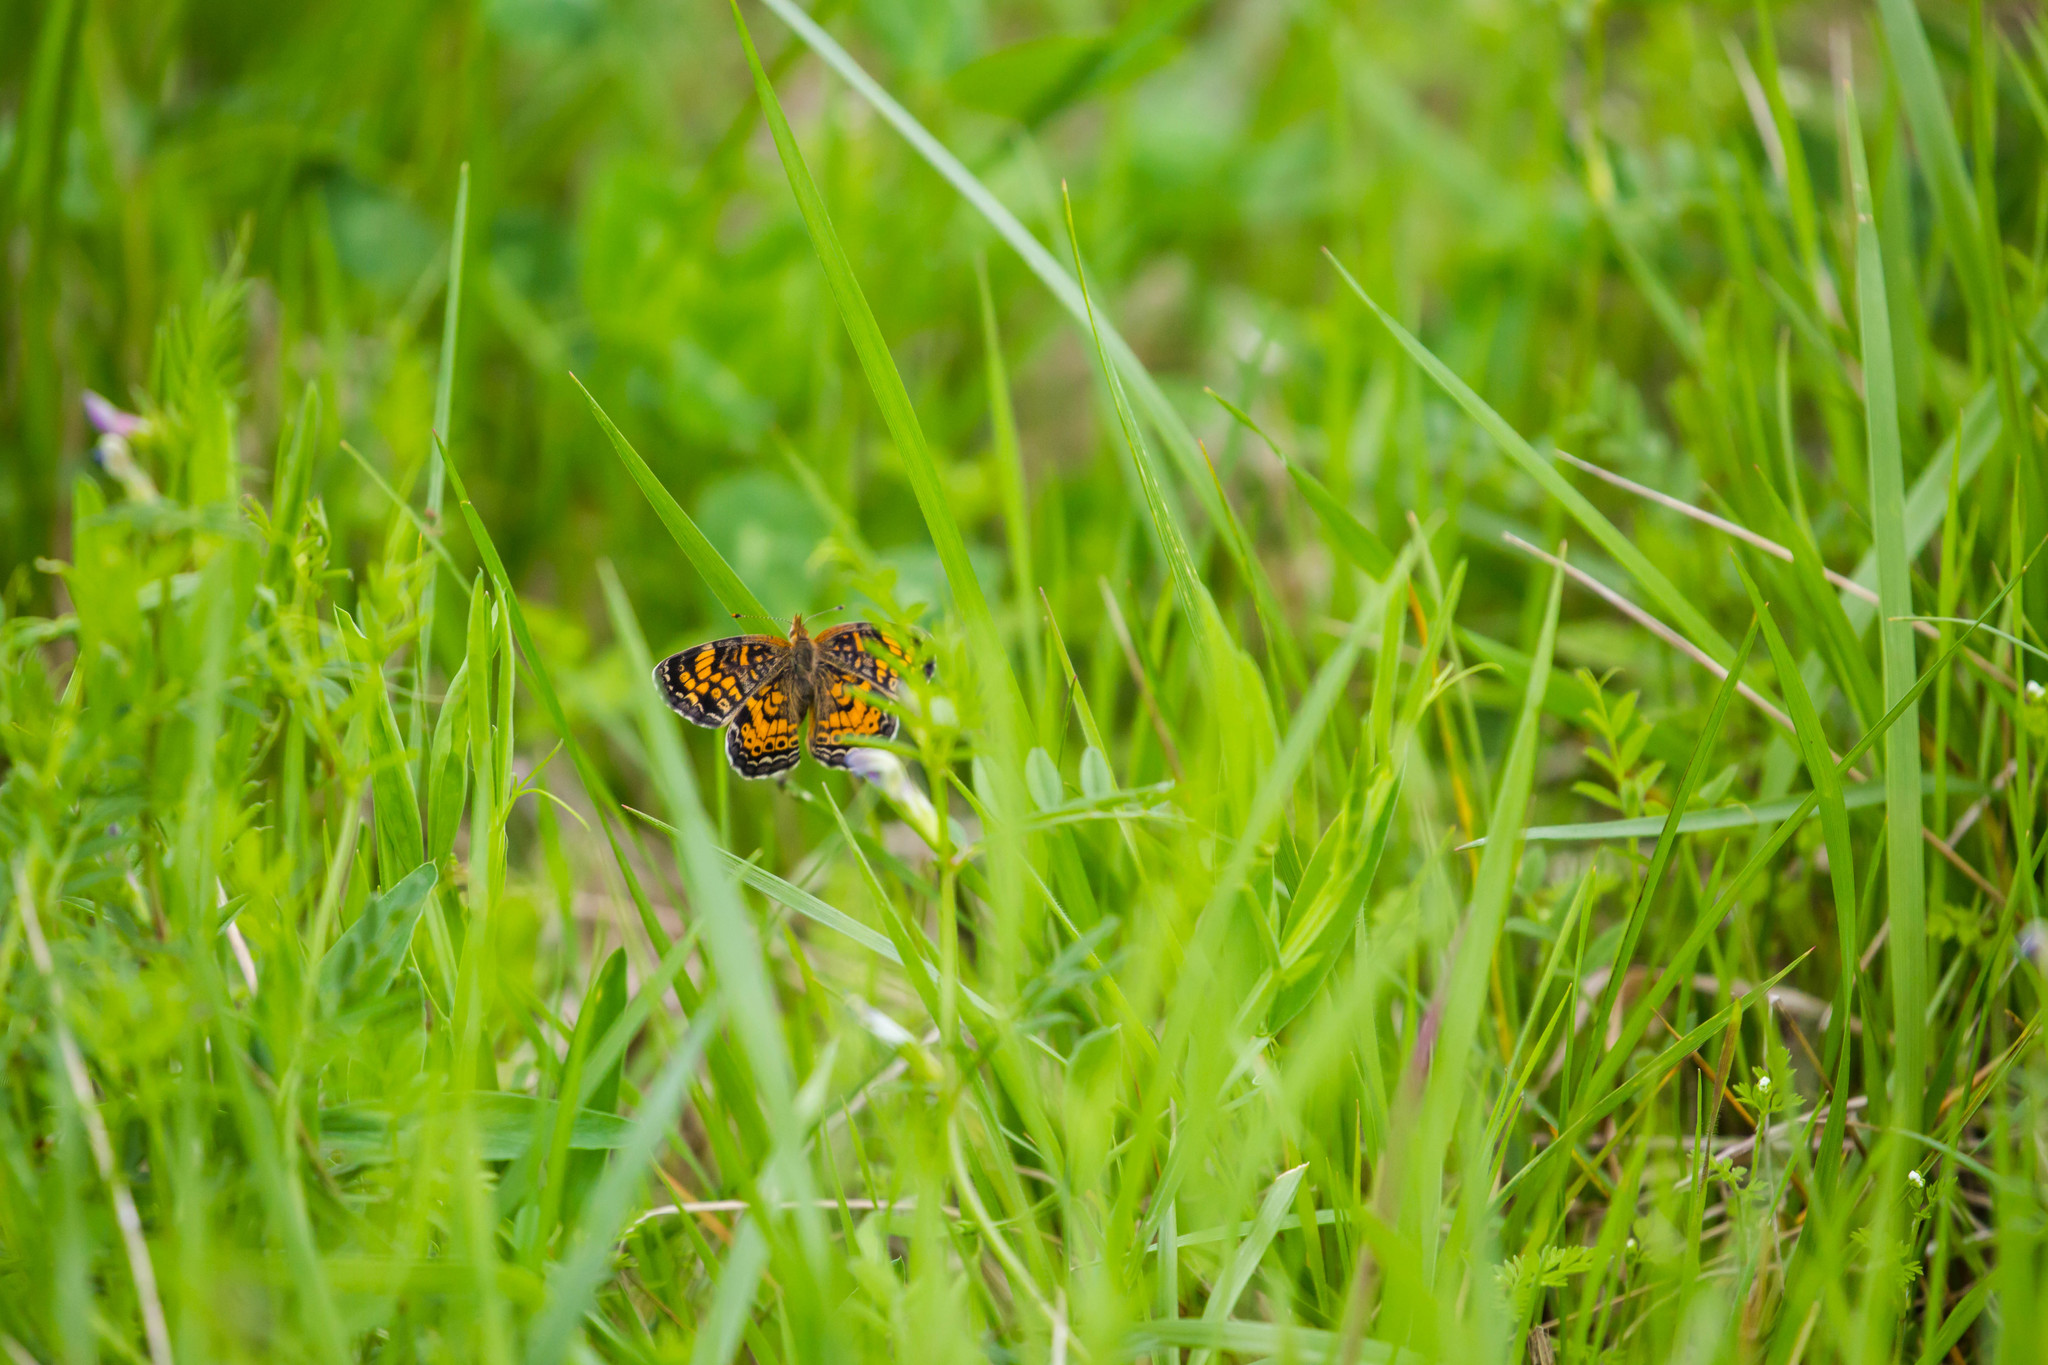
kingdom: Animalia
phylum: Arthropoda
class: Insecta
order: Lepidoptera
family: Nymphalidae
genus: Phyciodes
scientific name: Phyciodes tharos
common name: Pearl crescent
